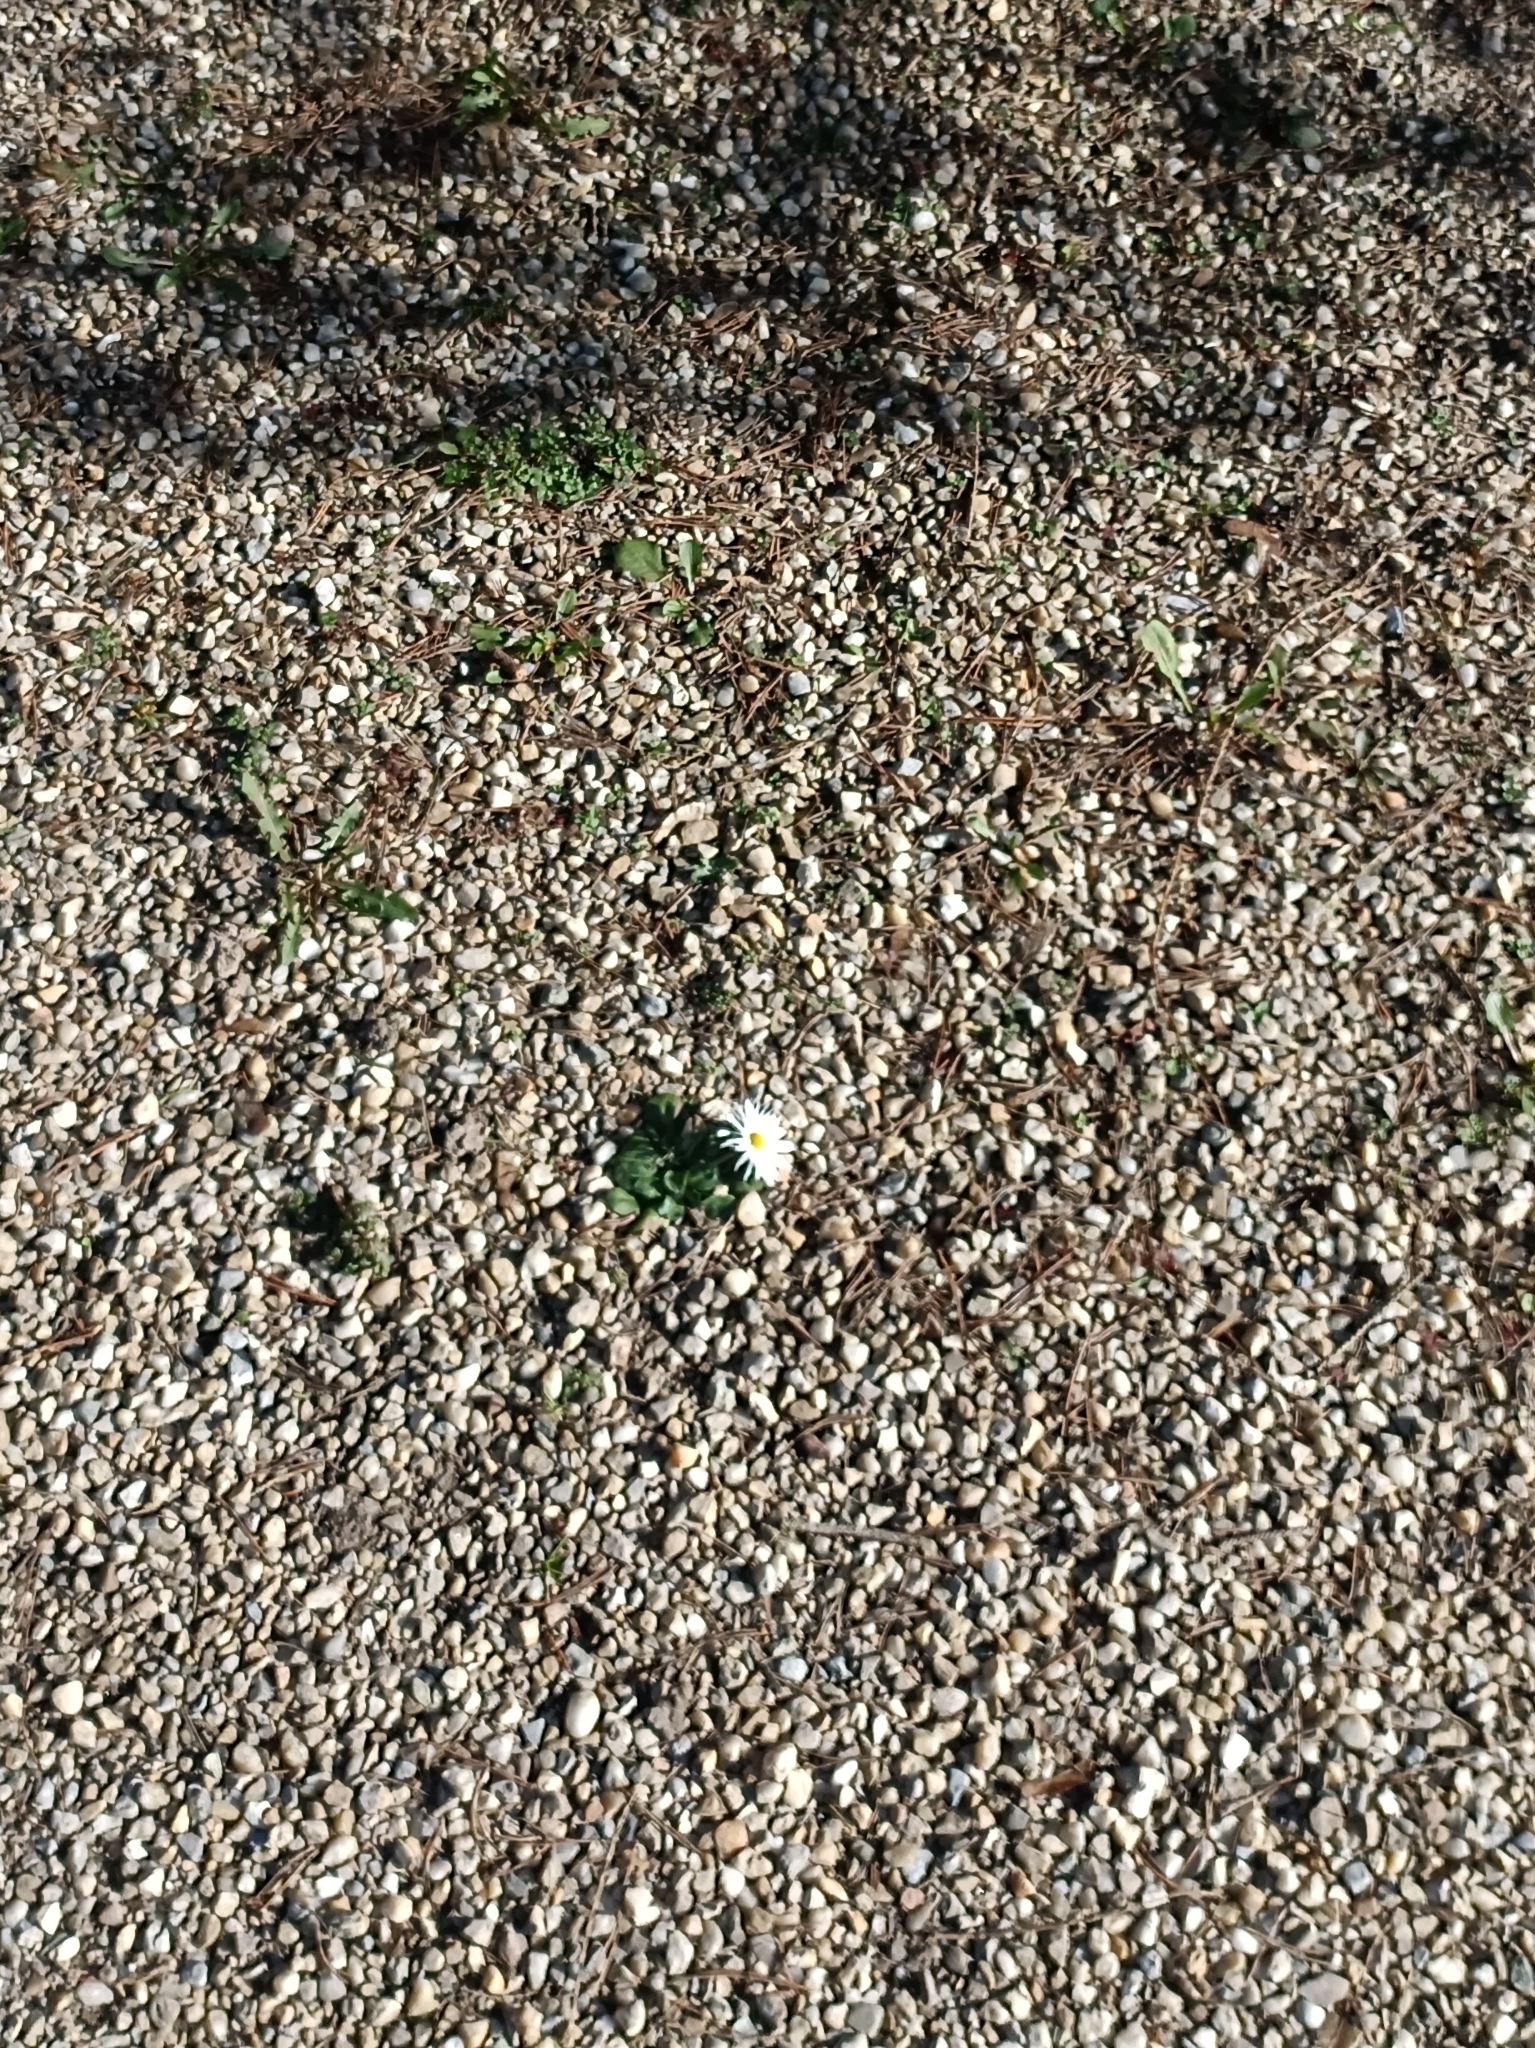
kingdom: Plantae
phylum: Tracheophyta
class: Magnoliopsida
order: Asterales
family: Asteraceae
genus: Bellis
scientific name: Bellis perennis
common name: Lawndaisy
